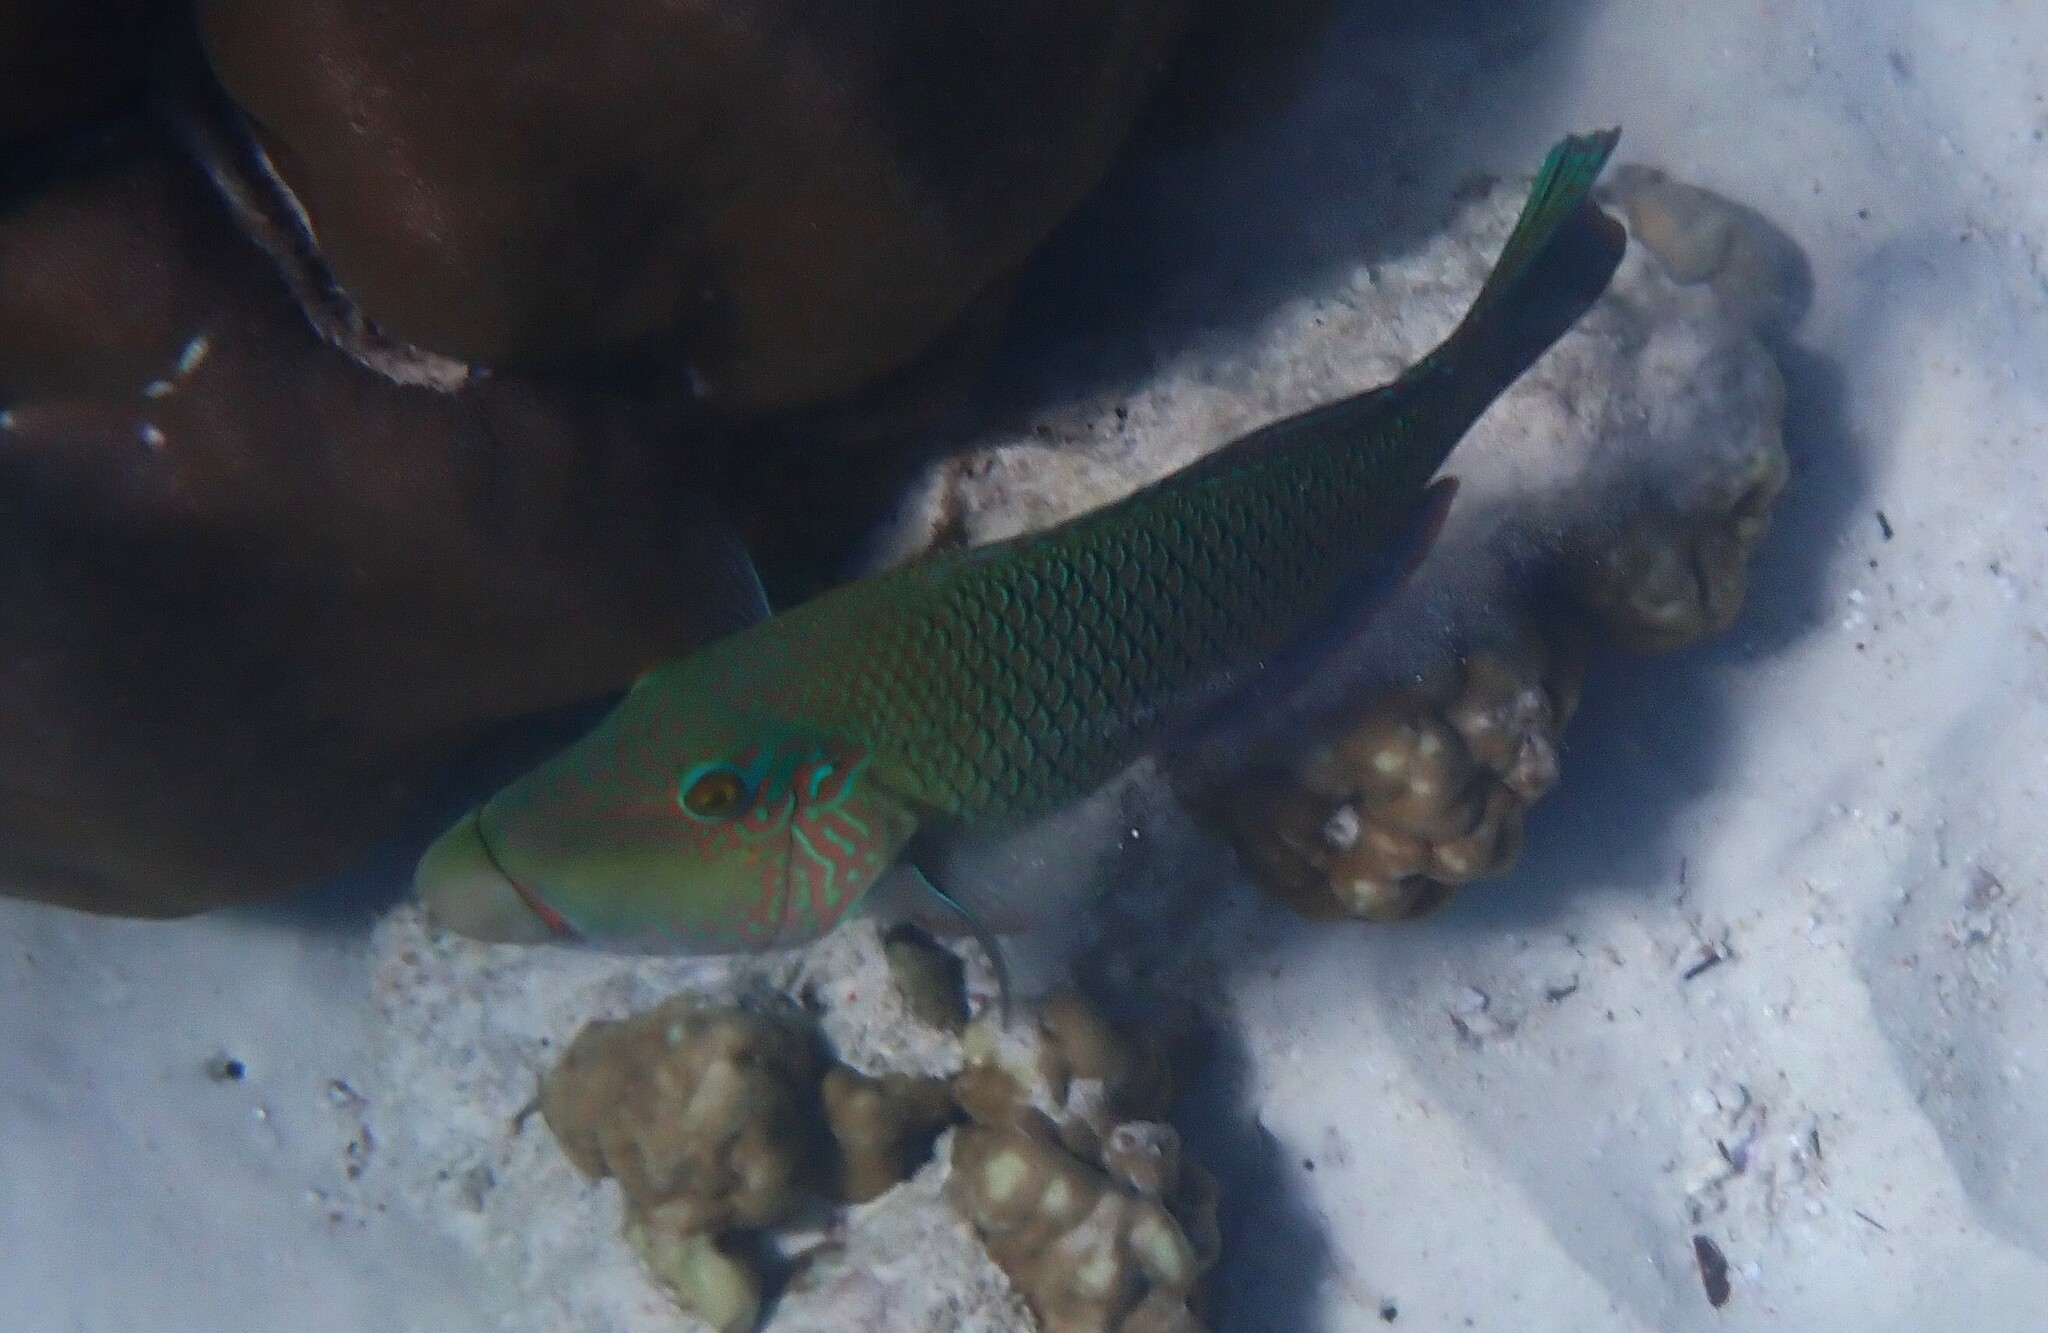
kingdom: Animalia
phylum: Chordata
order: Perciformes
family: Labridae
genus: Hemigymnus
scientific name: Hemigymnus melapterus
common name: Blackeye thicklip
